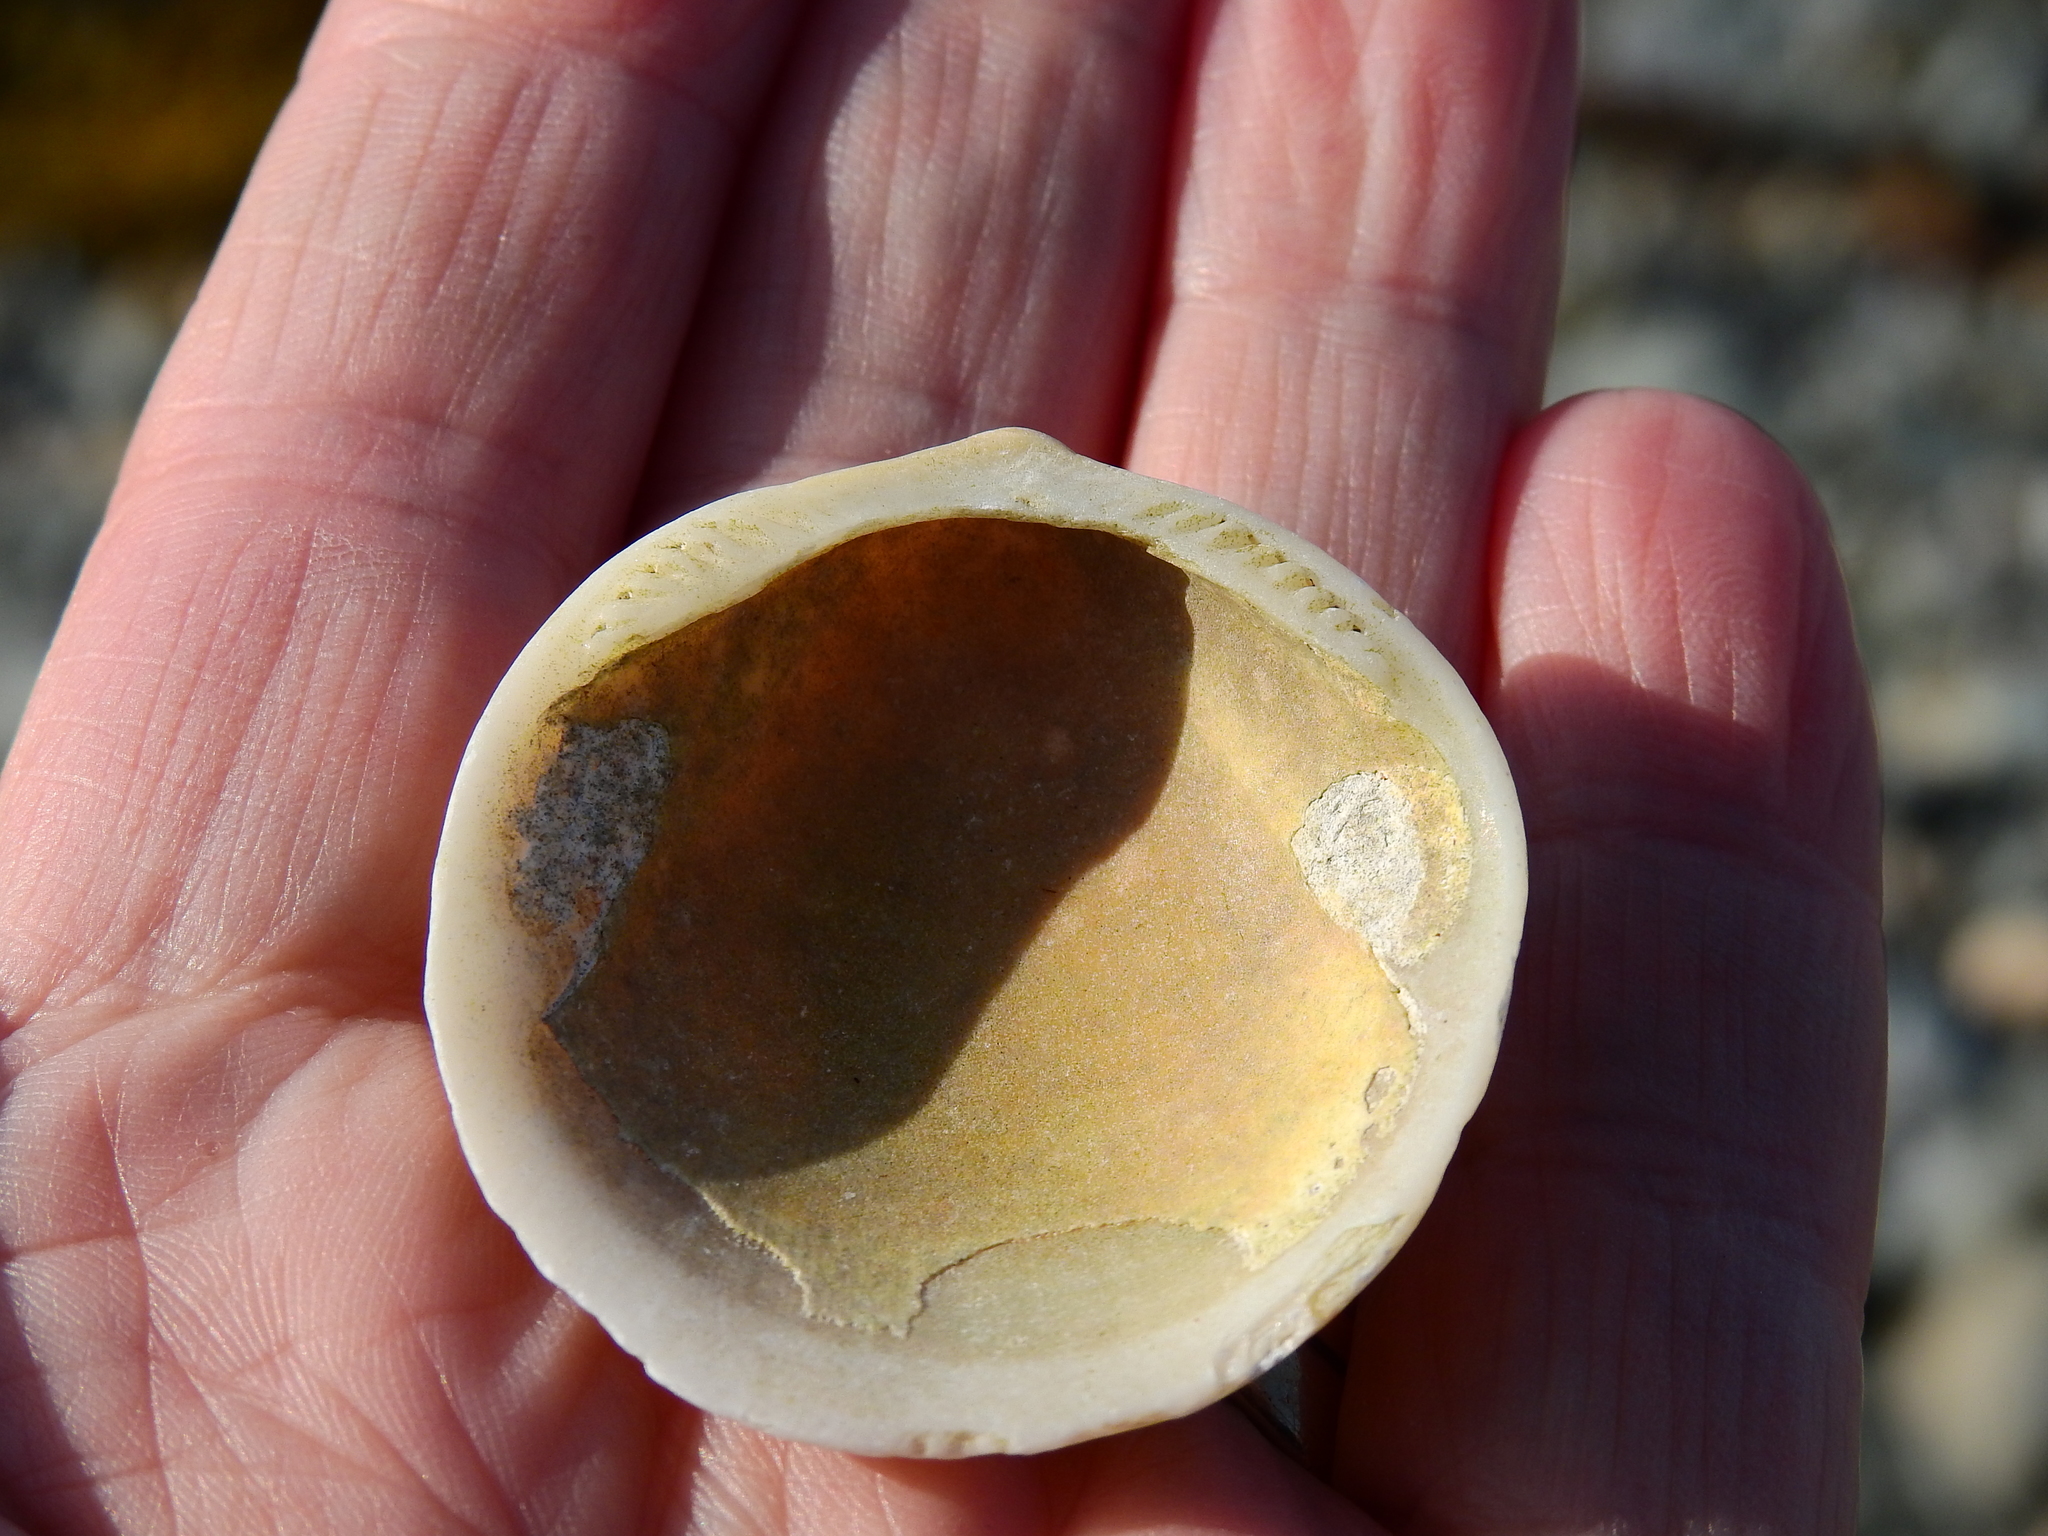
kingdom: Animalia
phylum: Mollusca
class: Bivalvia
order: Arcida
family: Glycymerididae
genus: Glycymeris
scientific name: Glycymeris glycymeris
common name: Dog-cockle
